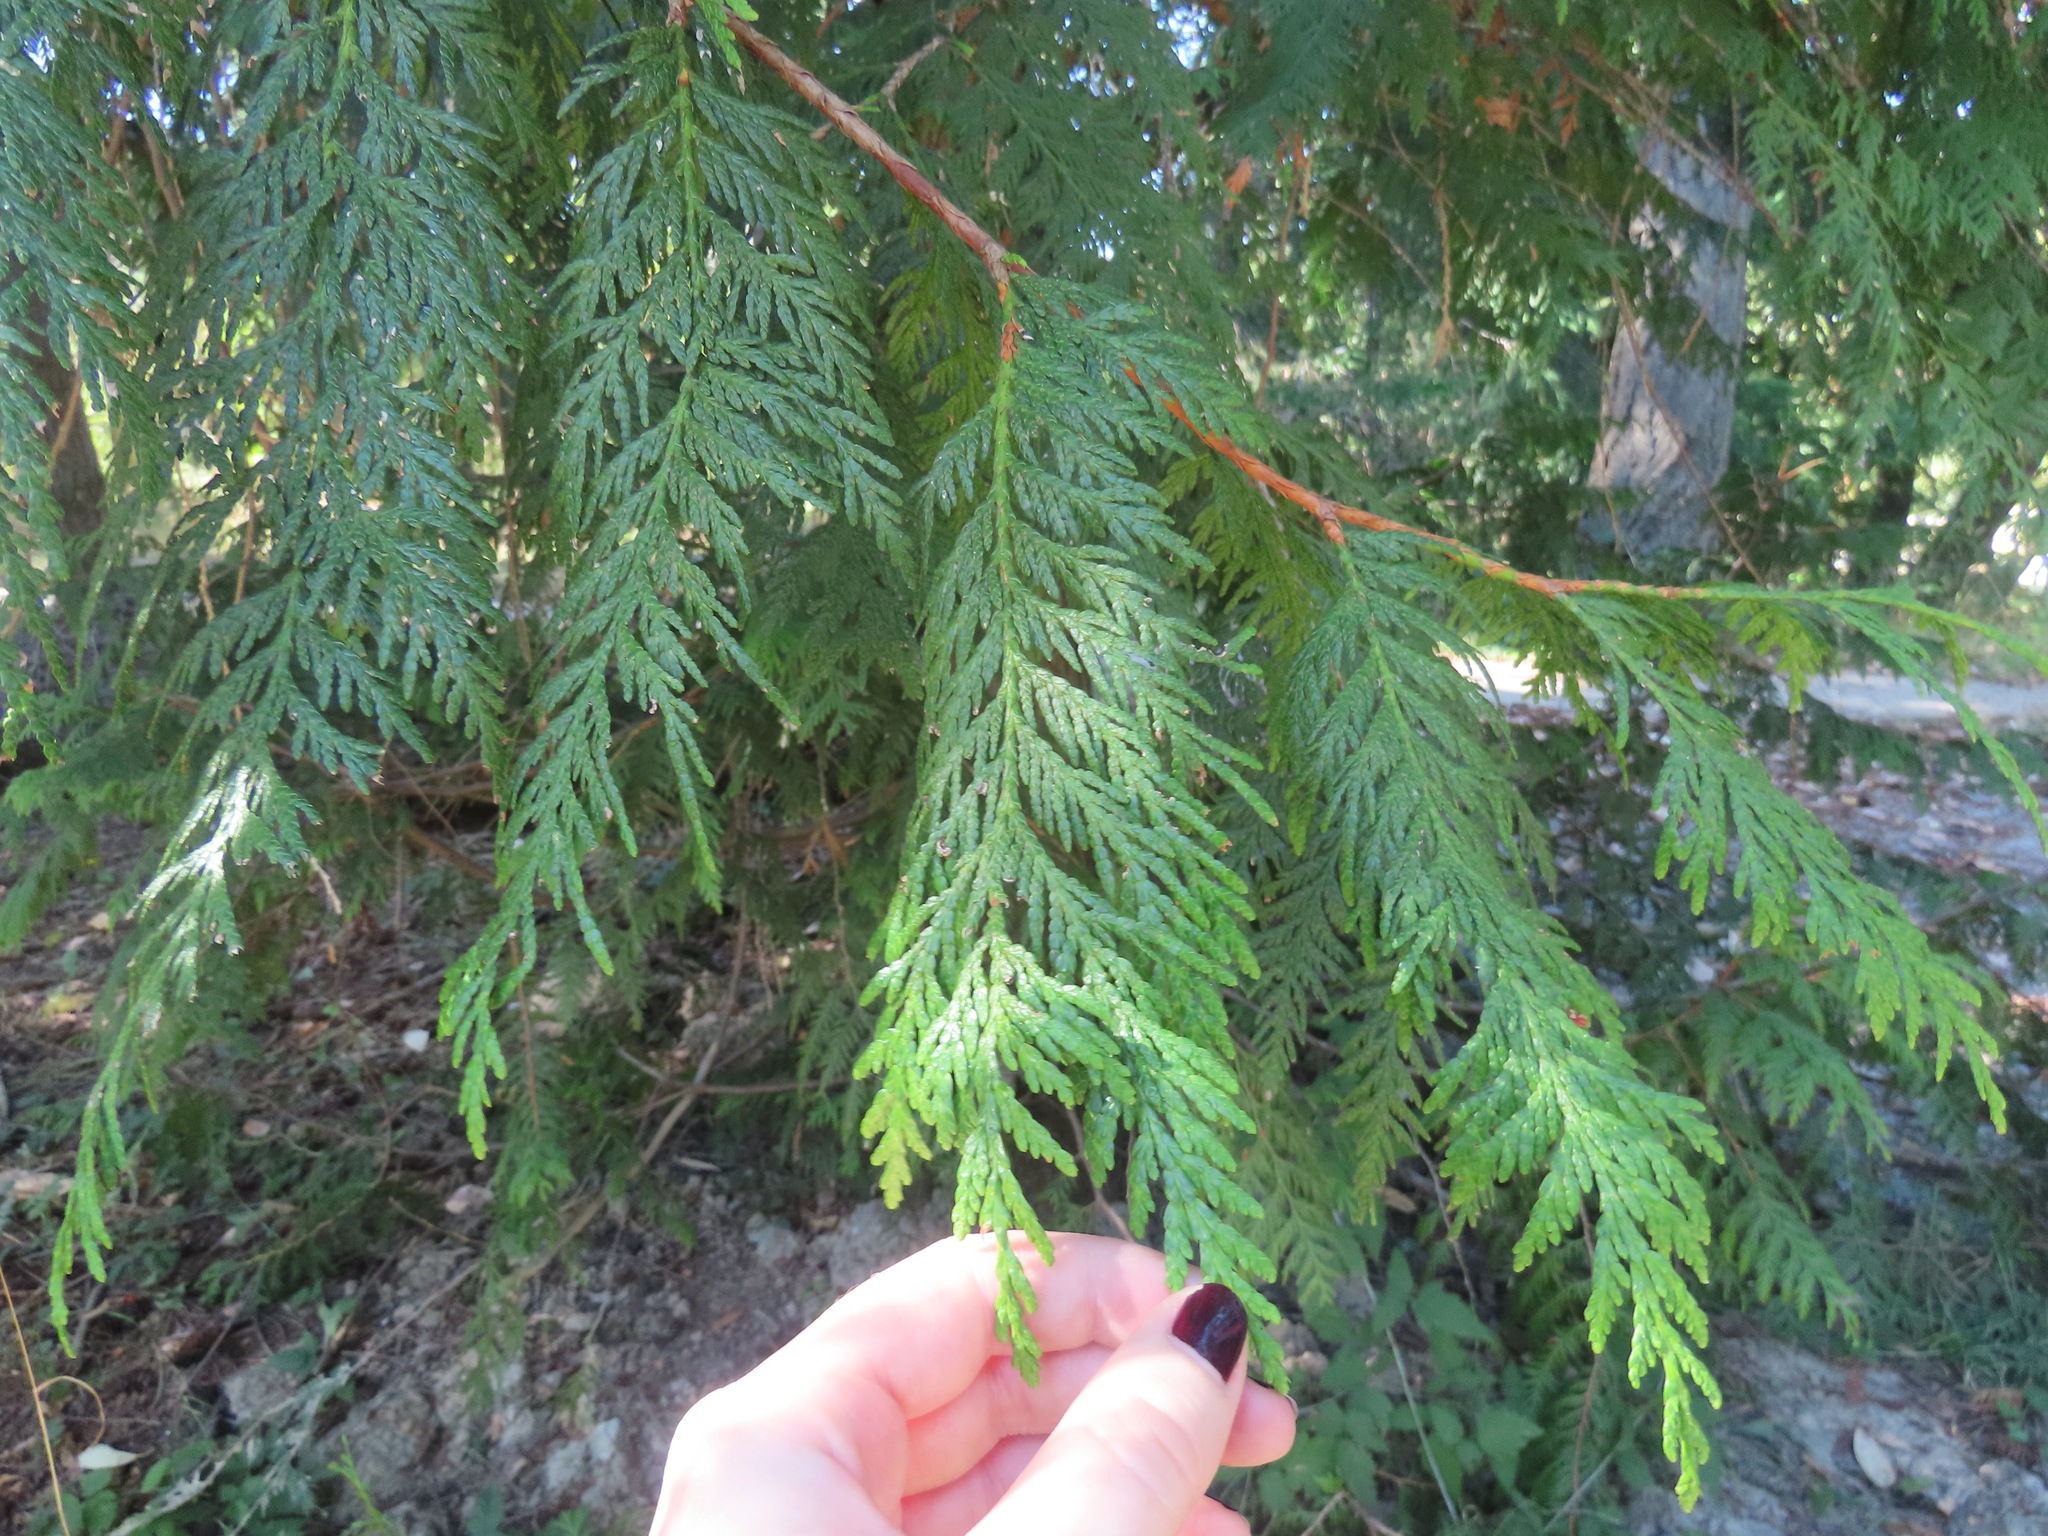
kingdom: Plantae
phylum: Tracheophyta
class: Pinopsida
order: Pinales
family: Cupressaceae
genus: Thuja
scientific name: Thuja plicata
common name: Western red-cedar
